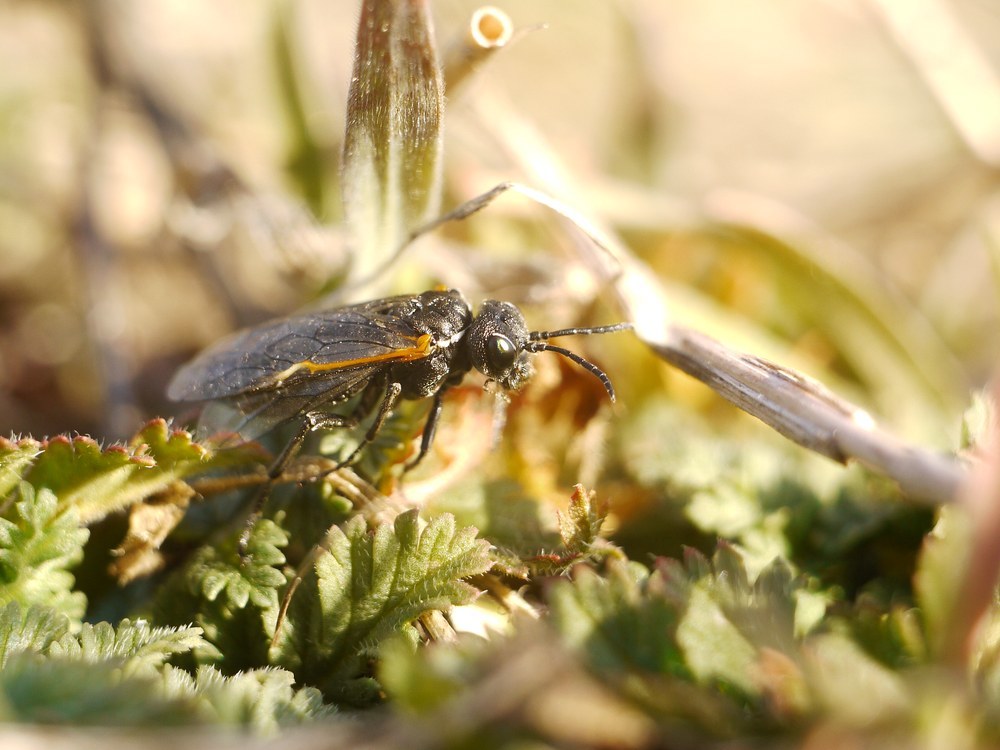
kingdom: Animalia
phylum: Arthropoda
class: Insecta
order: Hymenoptera
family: Tenthredinidae
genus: Sciapteryx
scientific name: Sciapteryx costalis
